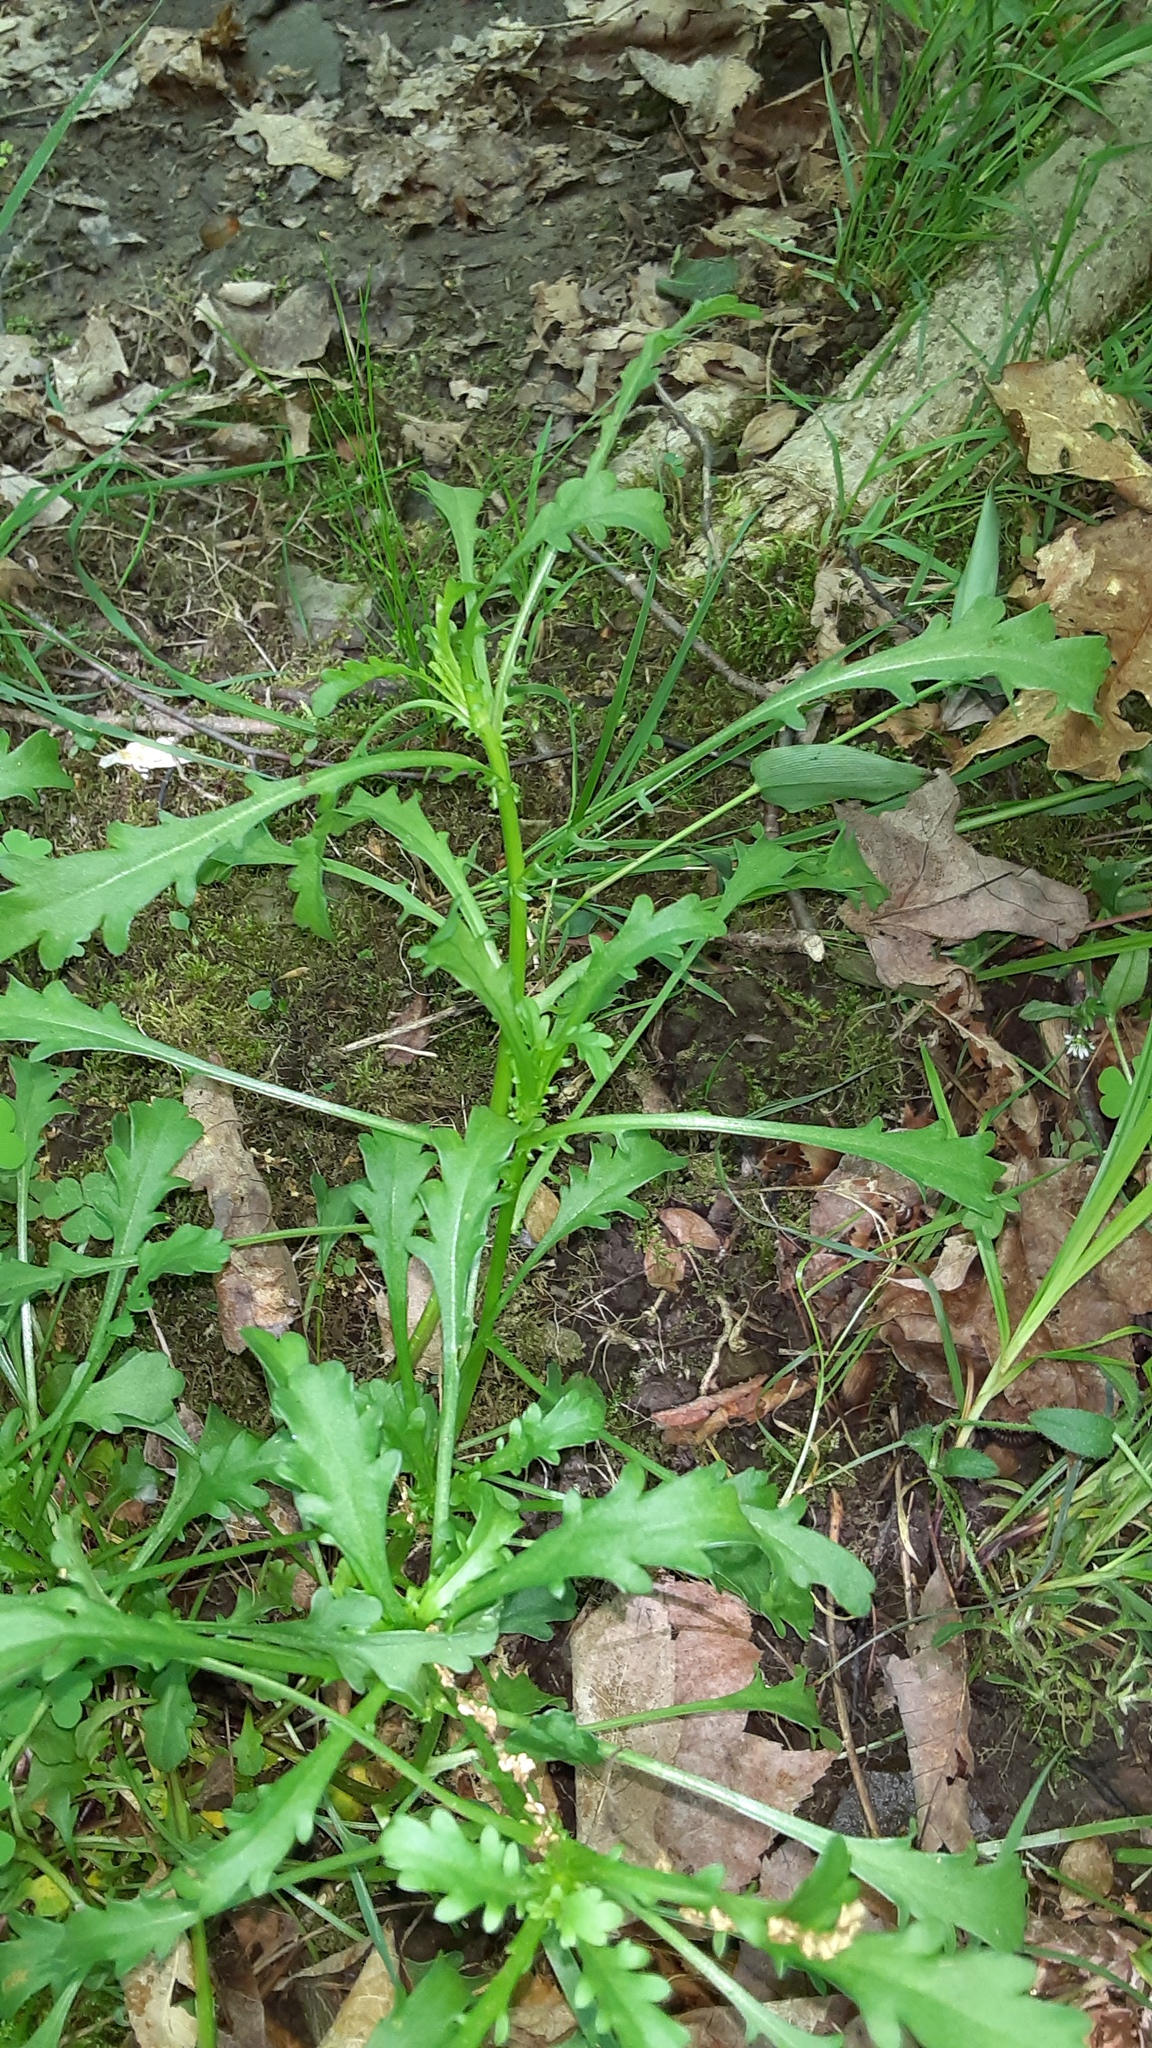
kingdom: Plantae
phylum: Tracheophyta
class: Magnoliopsida
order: Asterales
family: Asteraceae
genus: Leucanthemum
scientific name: Leucanthemum vulgare
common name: Oxeye daisy
